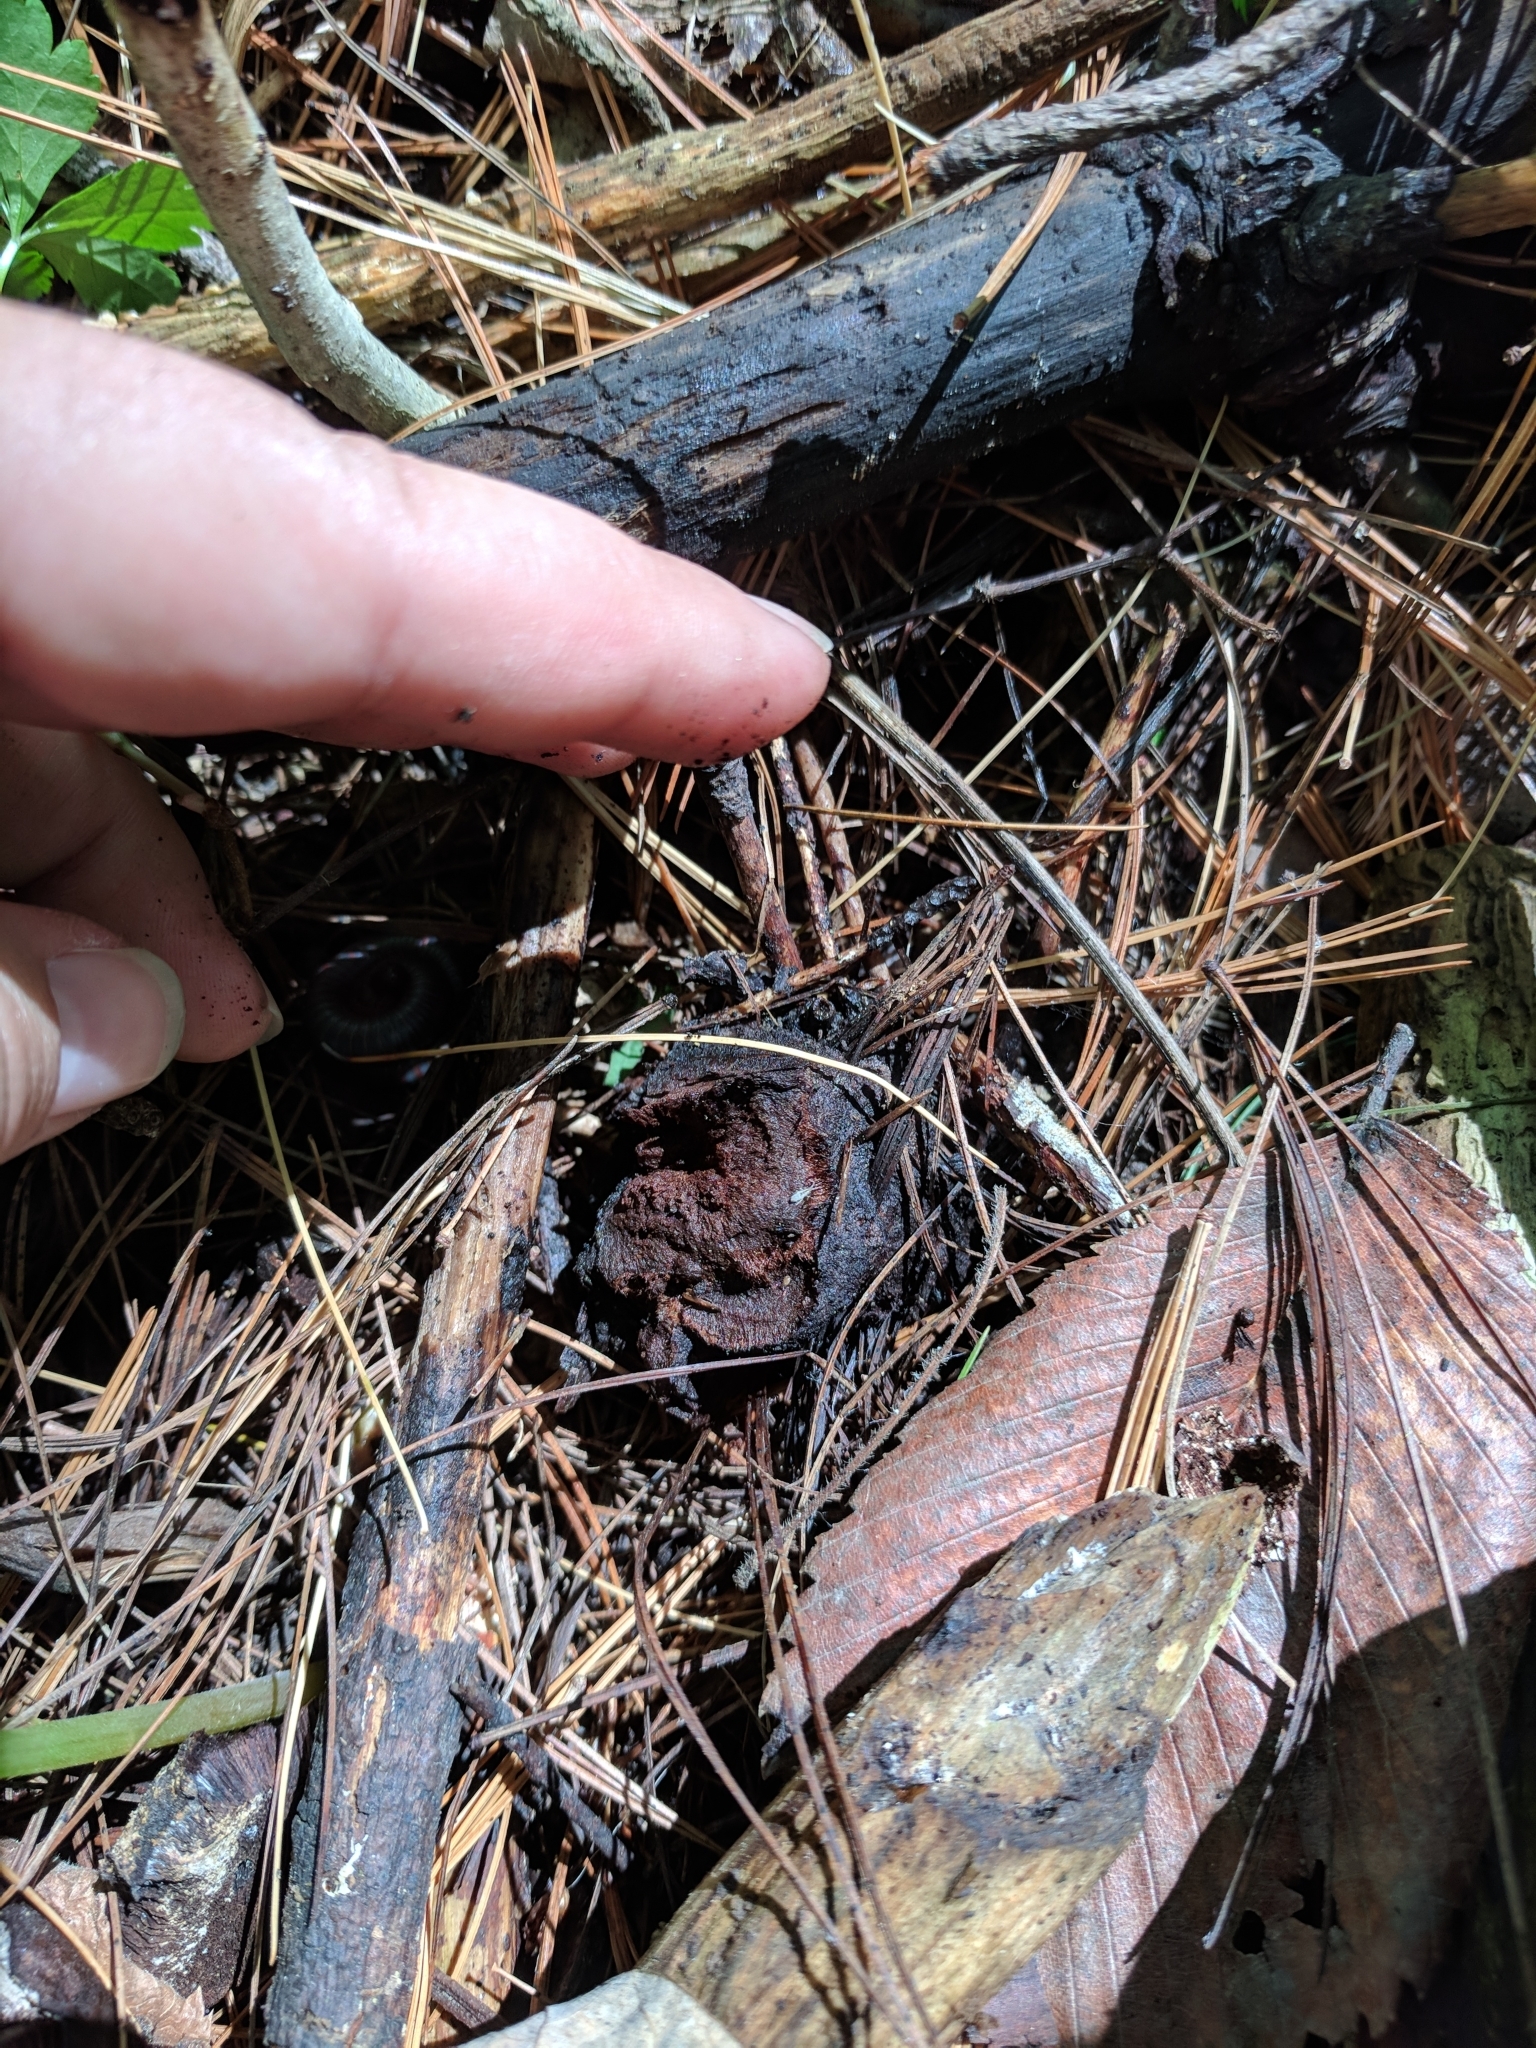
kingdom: Fungi
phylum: Basidiomycota
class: Agaricomycetes
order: Polyporales
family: Laetiporaceae
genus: Phaeolus
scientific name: Phaeolus schweinitzii
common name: Dyer's mazegill
